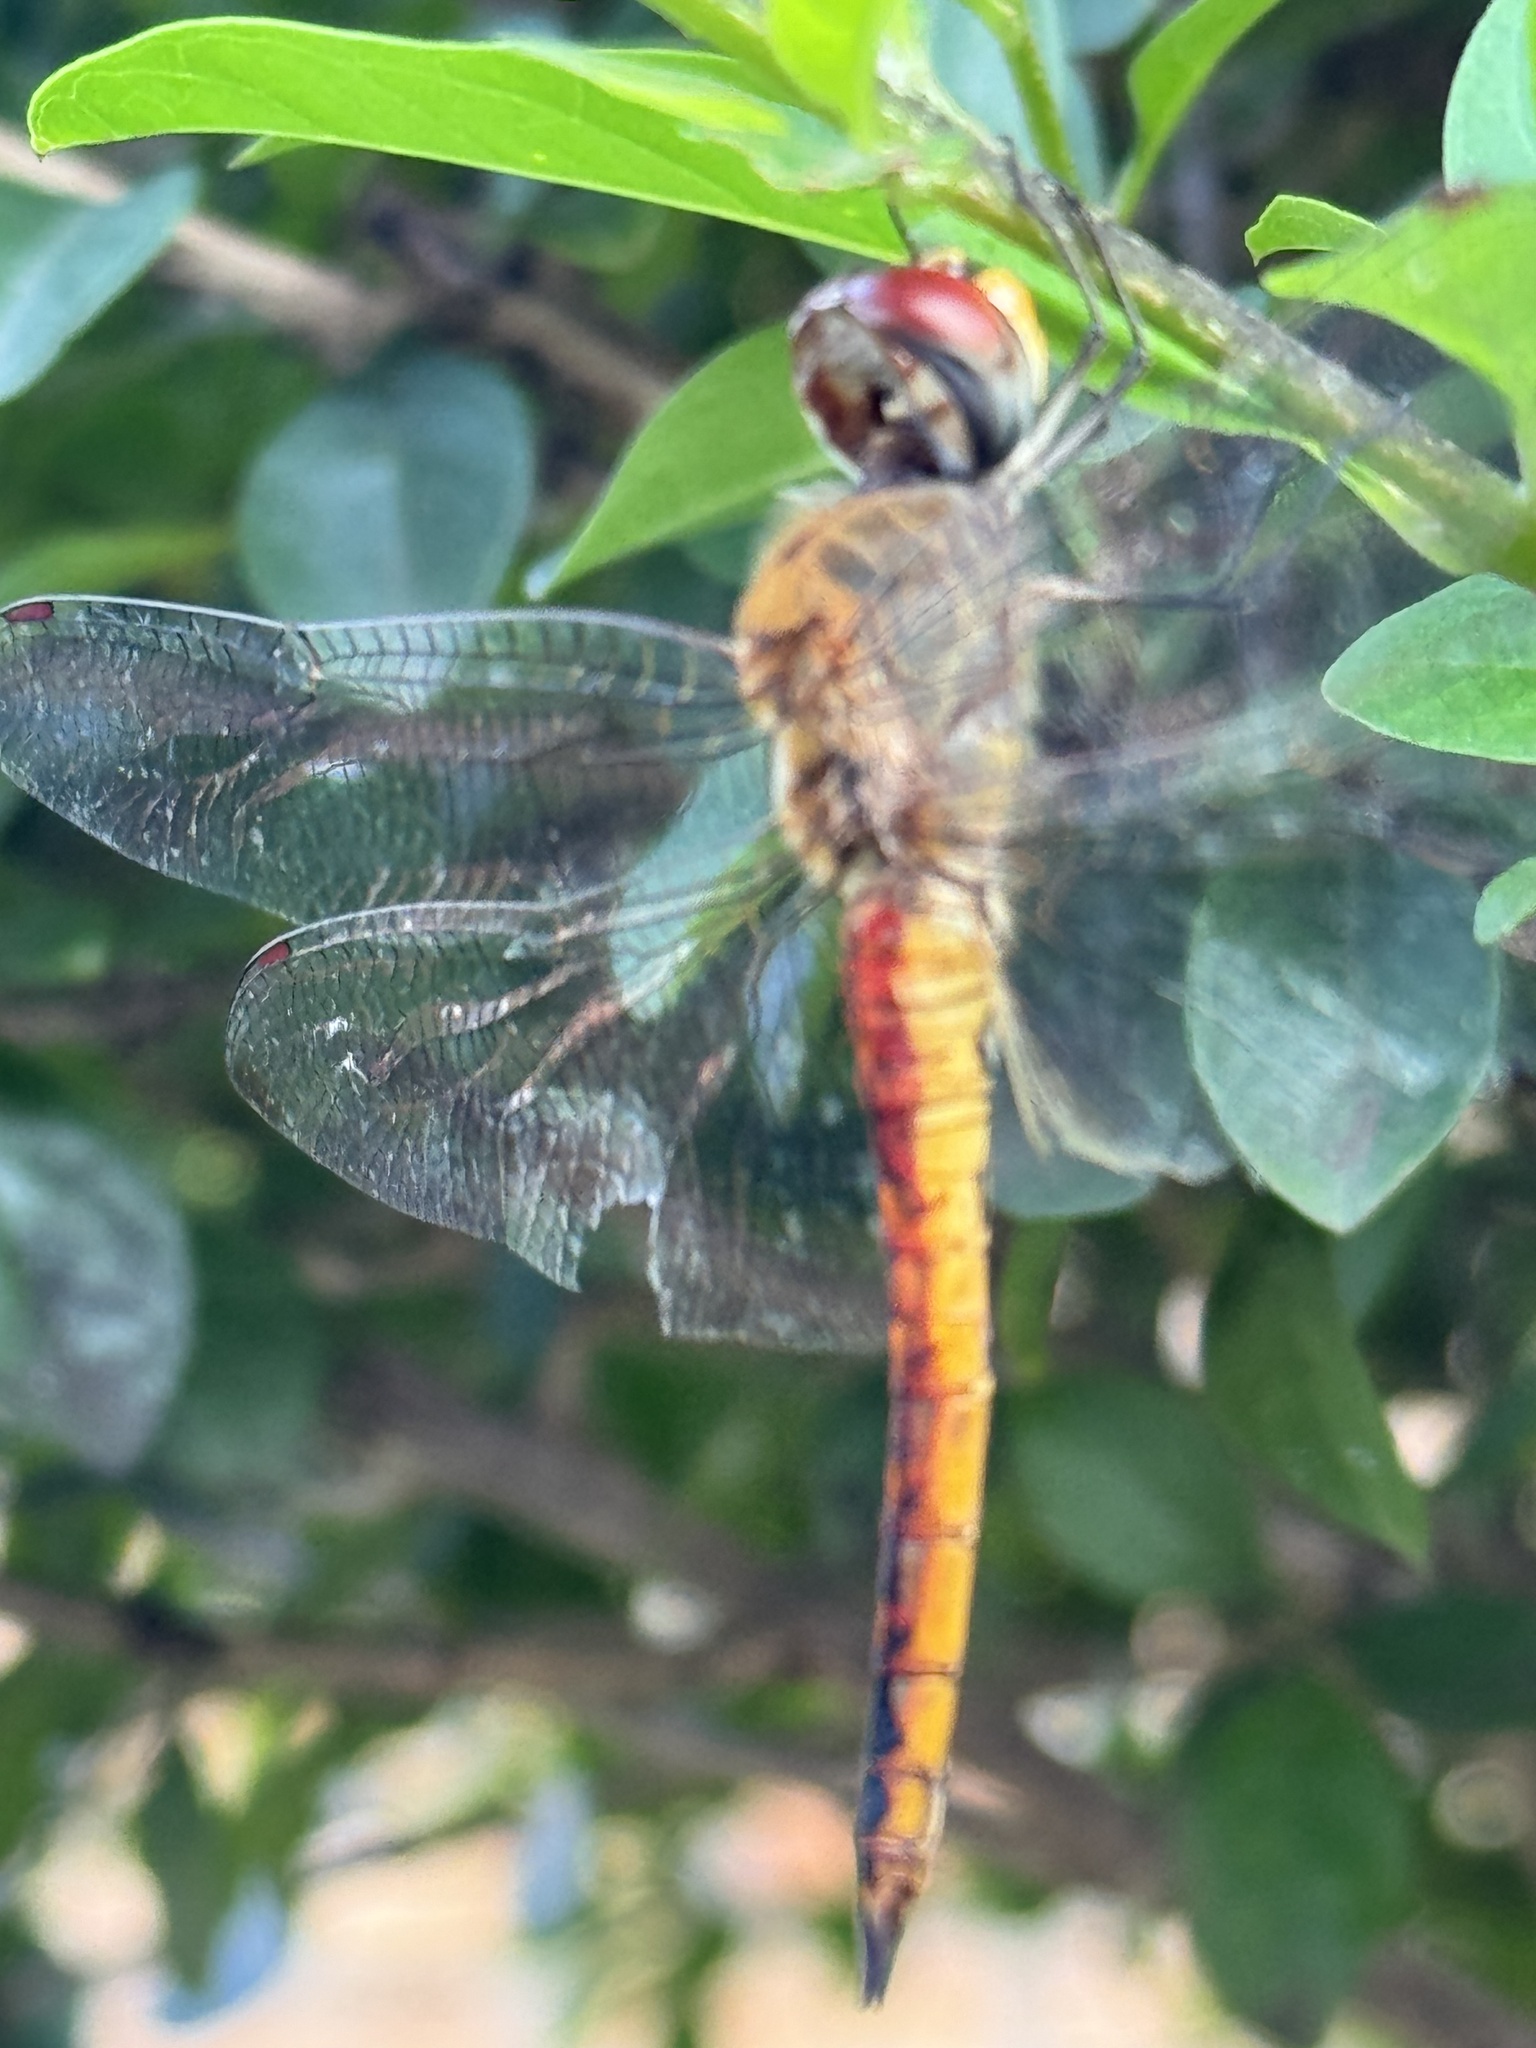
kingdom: Animalia
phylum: Arthropoda
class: Insecta
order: Odonata
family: Libellulidae
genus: Pantala
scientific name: Pantala flavescens
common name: Wandering glider
